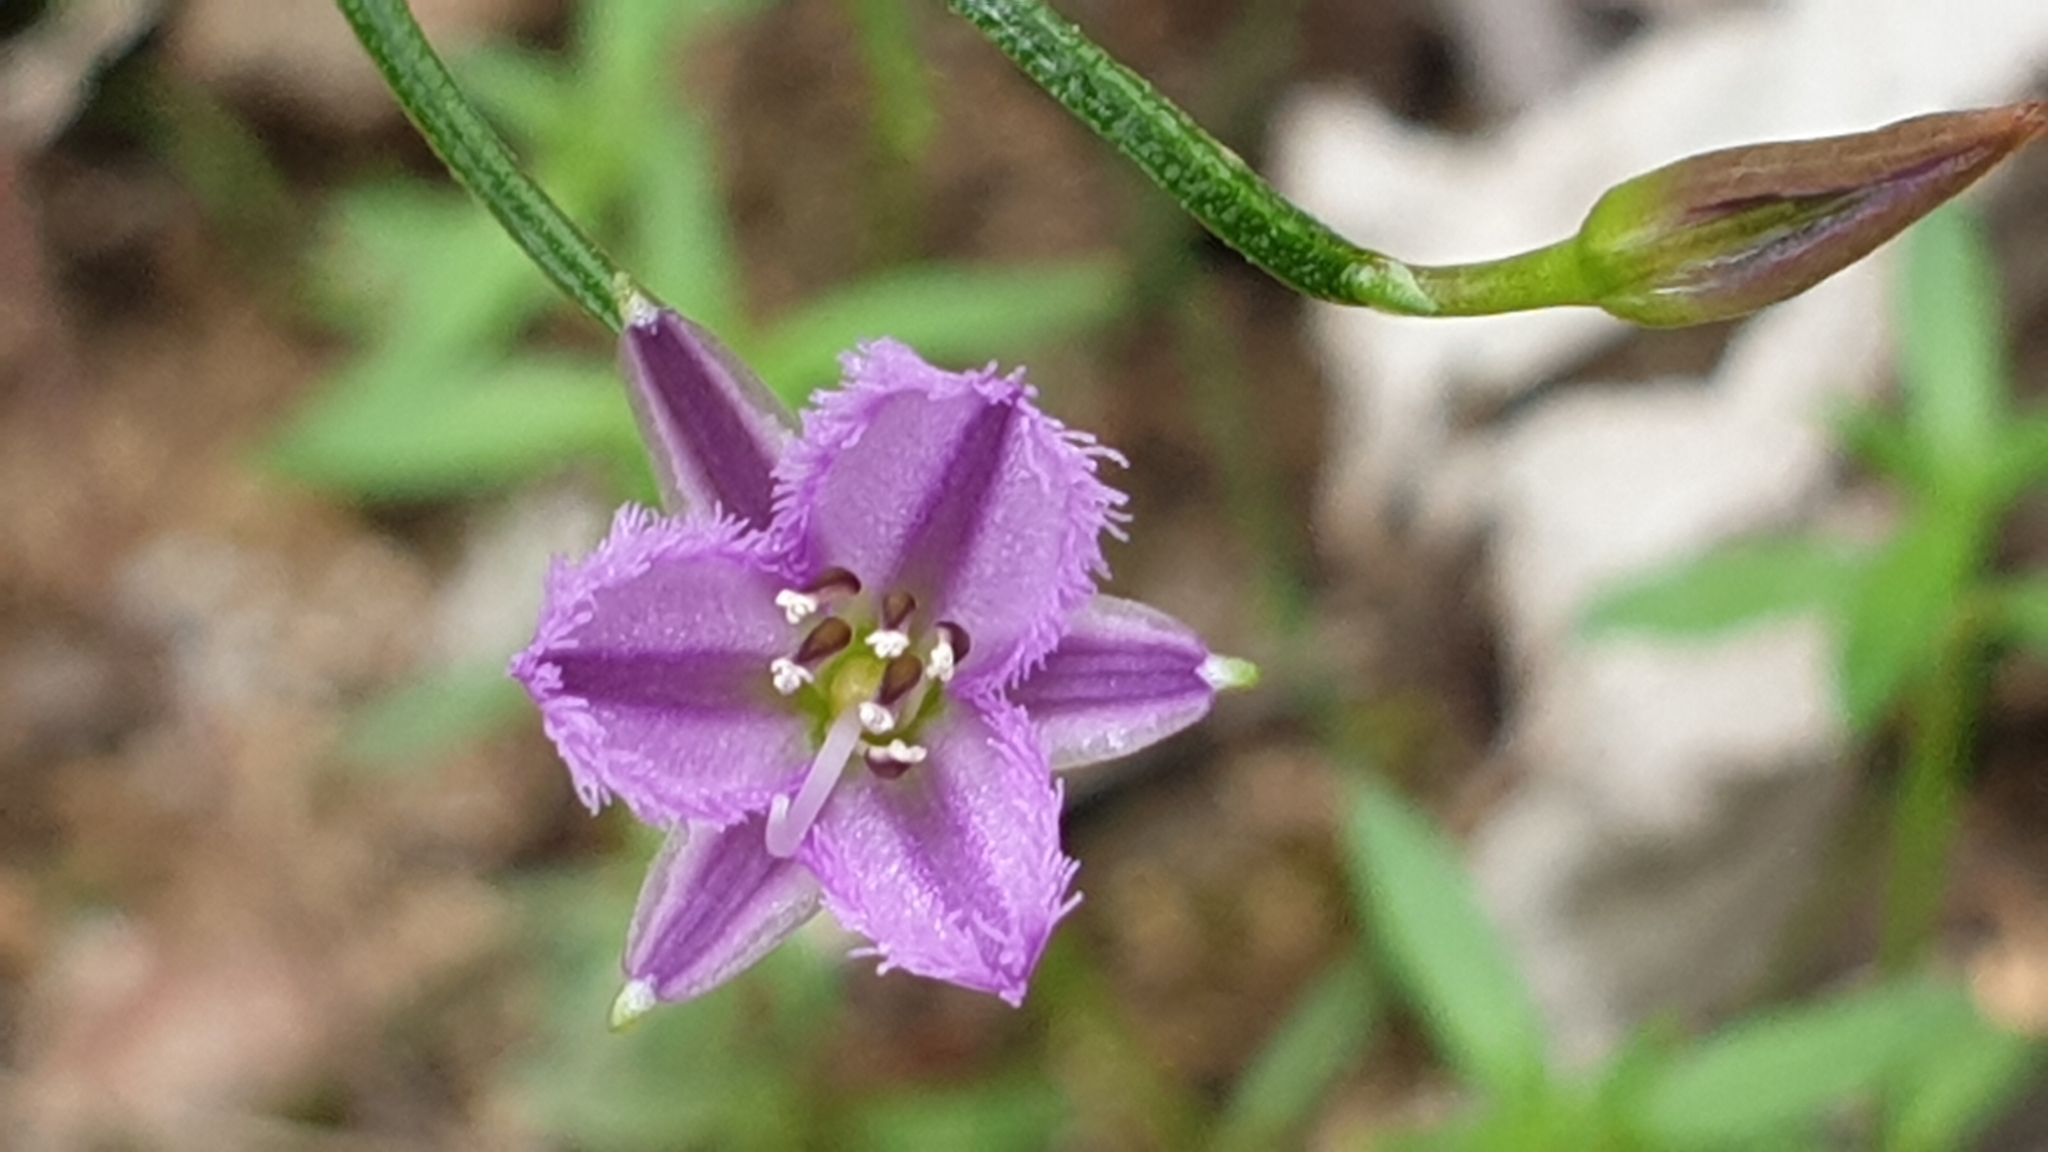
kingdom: Plantae
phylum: Tracheophyta
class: Liliopsida
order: Asparagales
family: Asparagaceae
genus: Thysanotus
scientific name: Thysanotus patersonii
